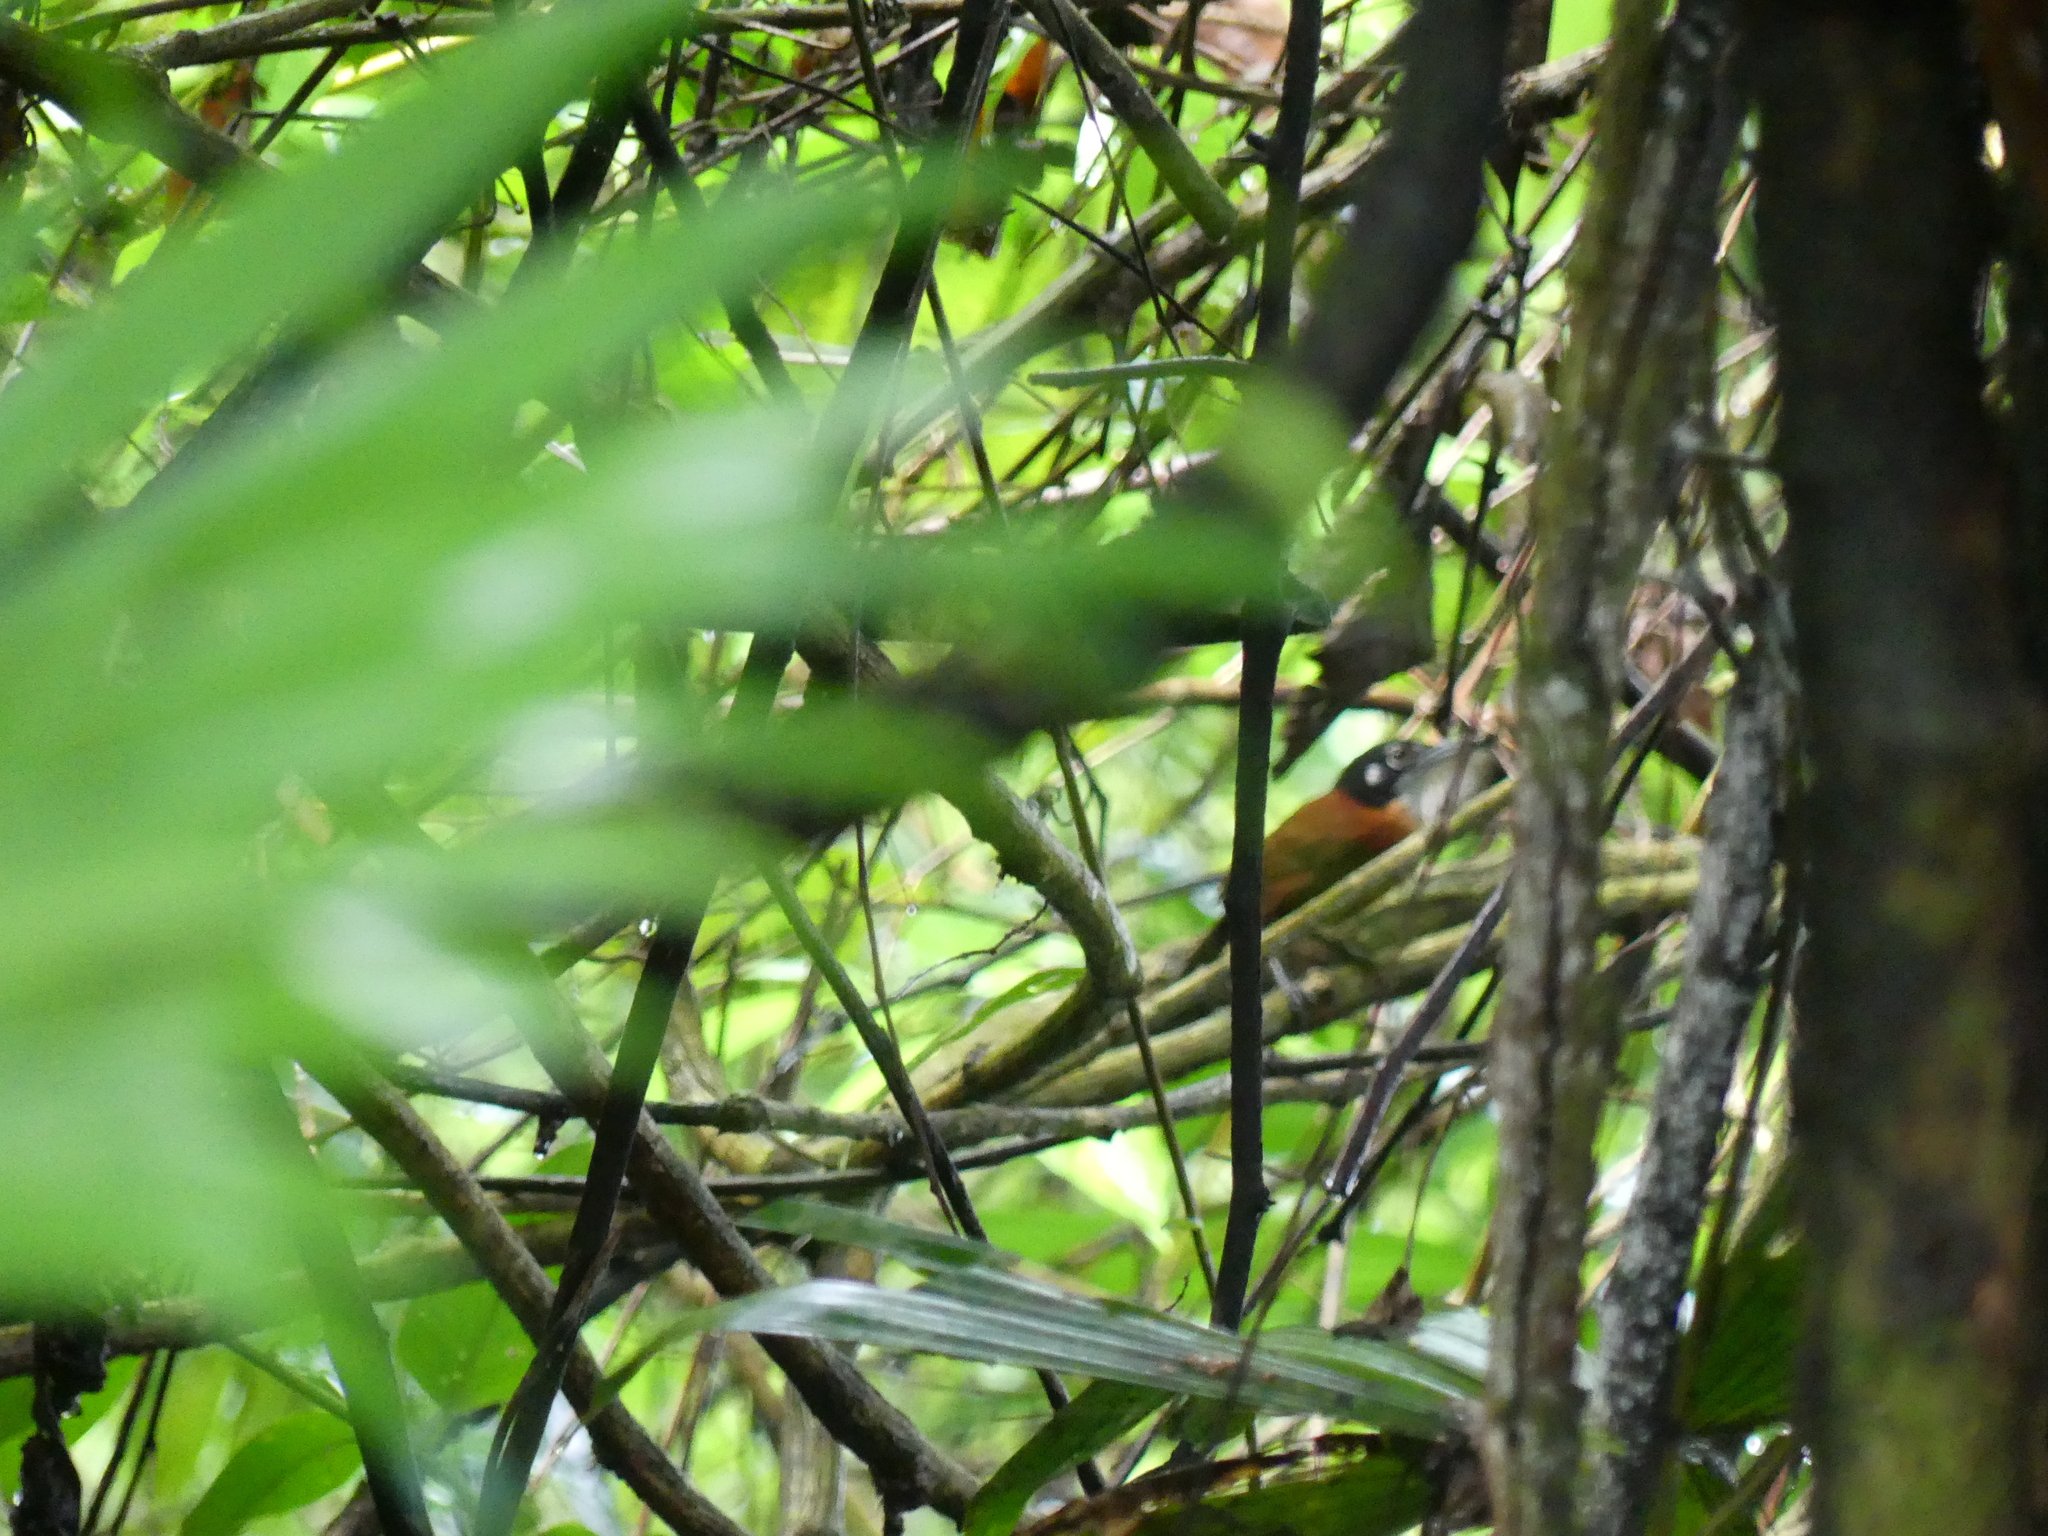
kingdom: Animalia
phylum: Chordata
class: Aves
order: Passeriformes
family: Troglodytidae
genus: Cantorchilus
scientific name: Cantorchilus nigricapillus
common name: Bay wren
